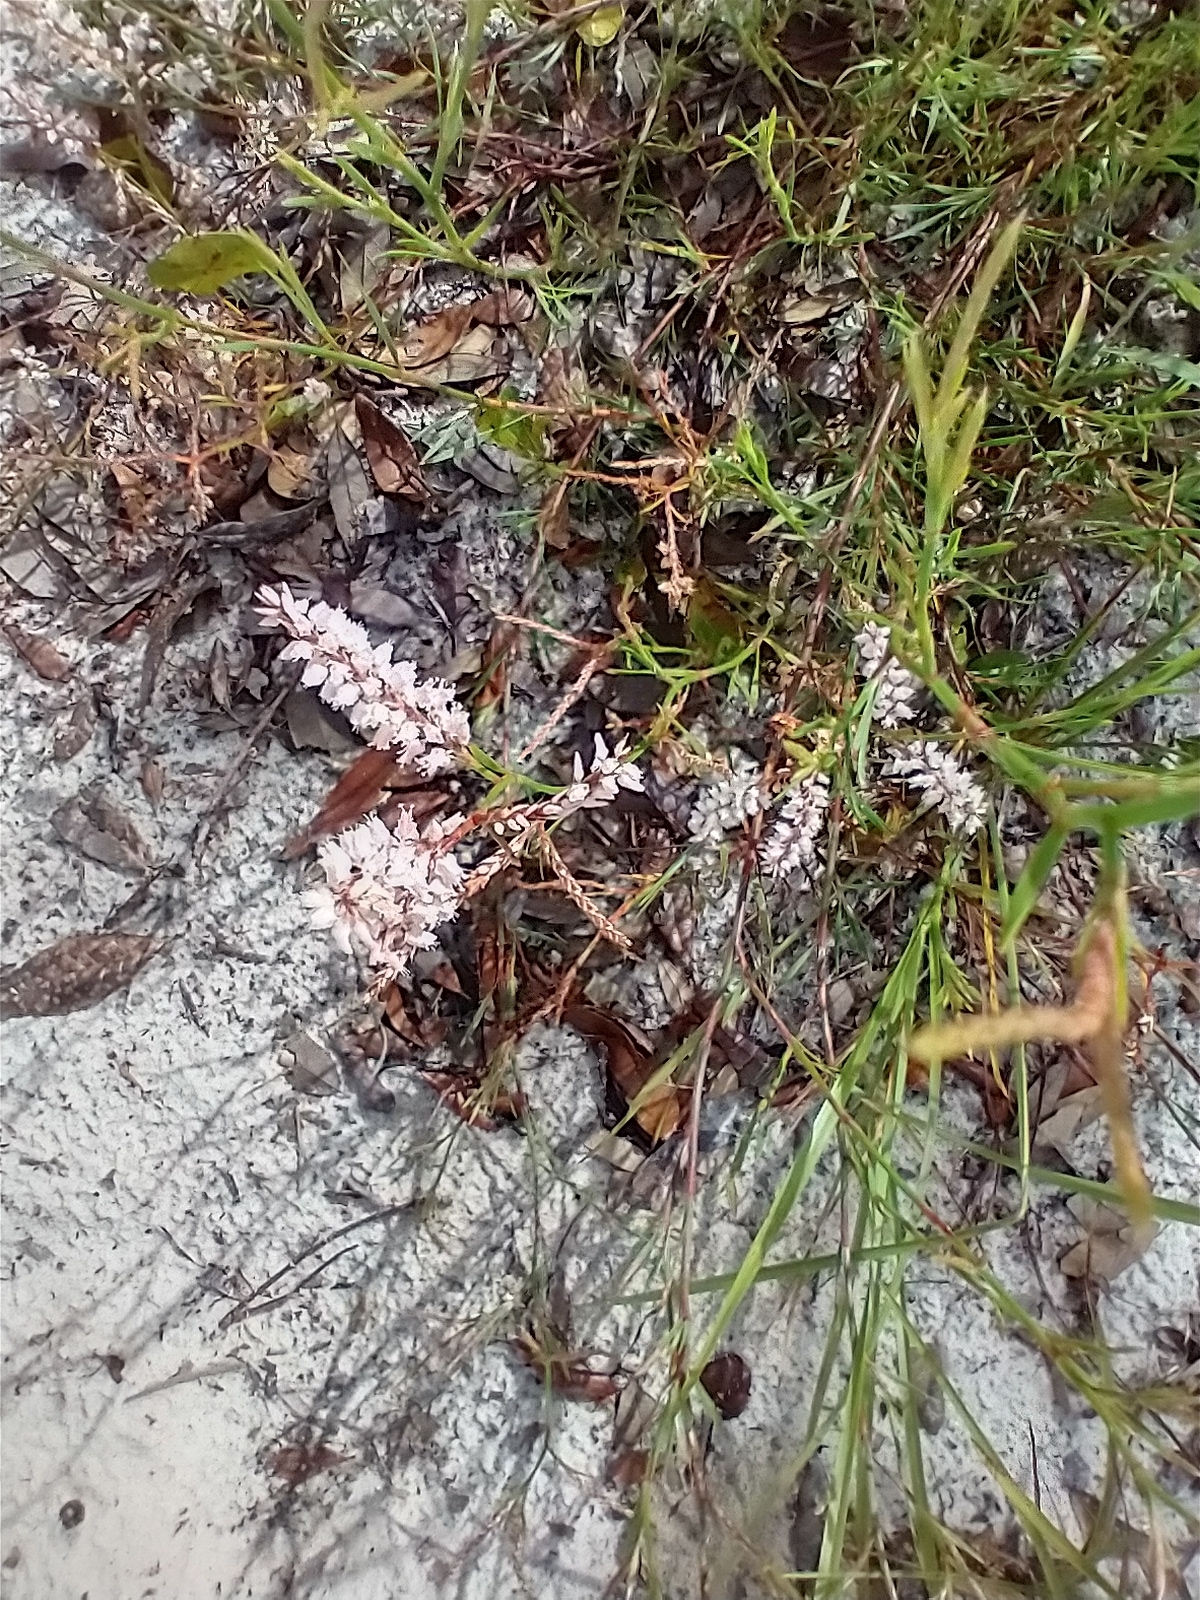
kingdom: Plantae
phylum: Tracheophyta
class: Magnoliopsida
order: Caryophyllales
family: Polygonaceae
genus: Polygonella
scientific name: Polygonella robusta
